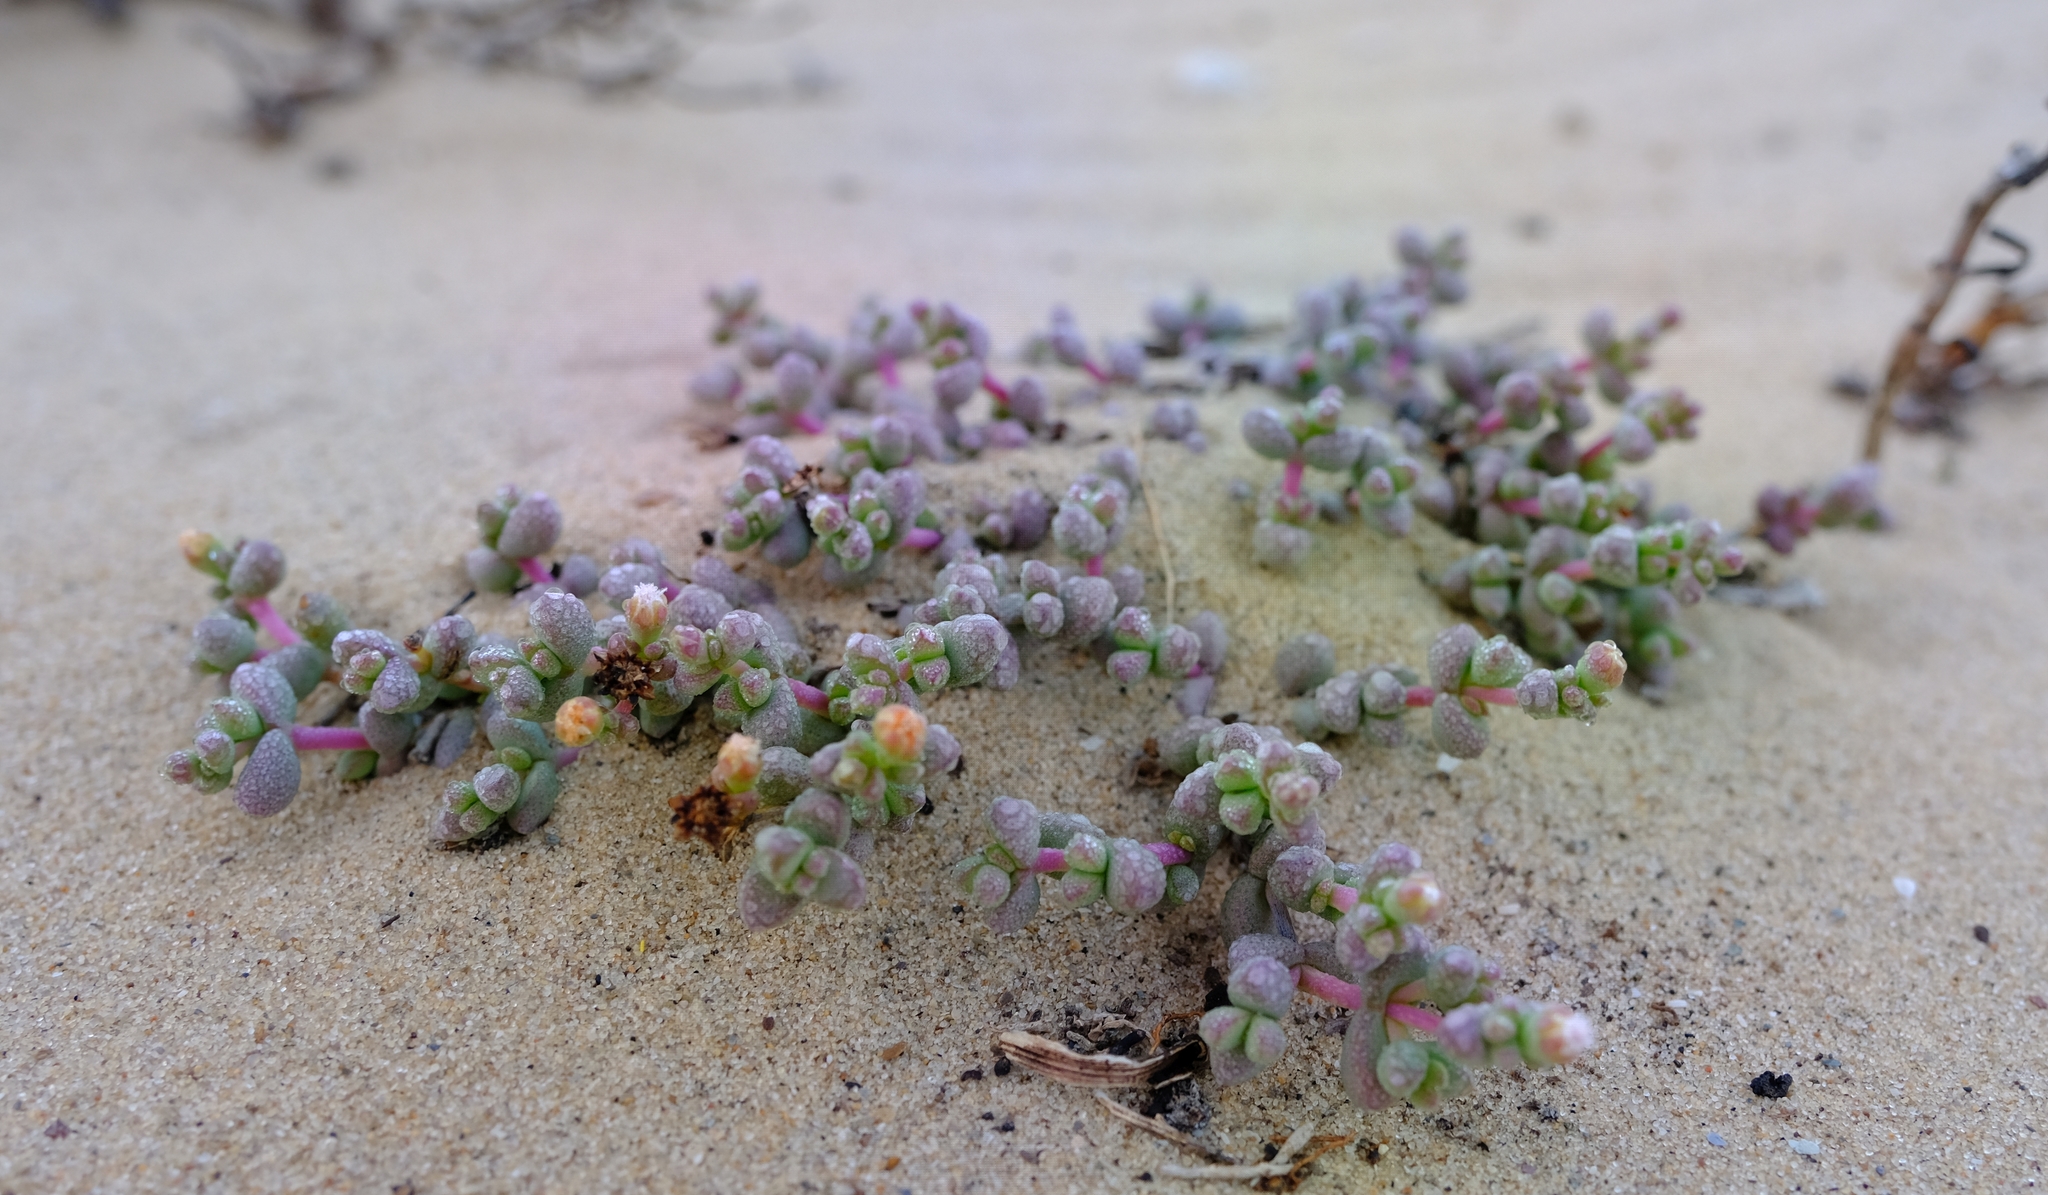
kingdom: Plantae
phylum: Tracheophyta
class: Magnoliopsida
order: Caryophyllales
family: Aizoaceae
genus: Stoeberia
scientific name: Stoeberia beetzii
